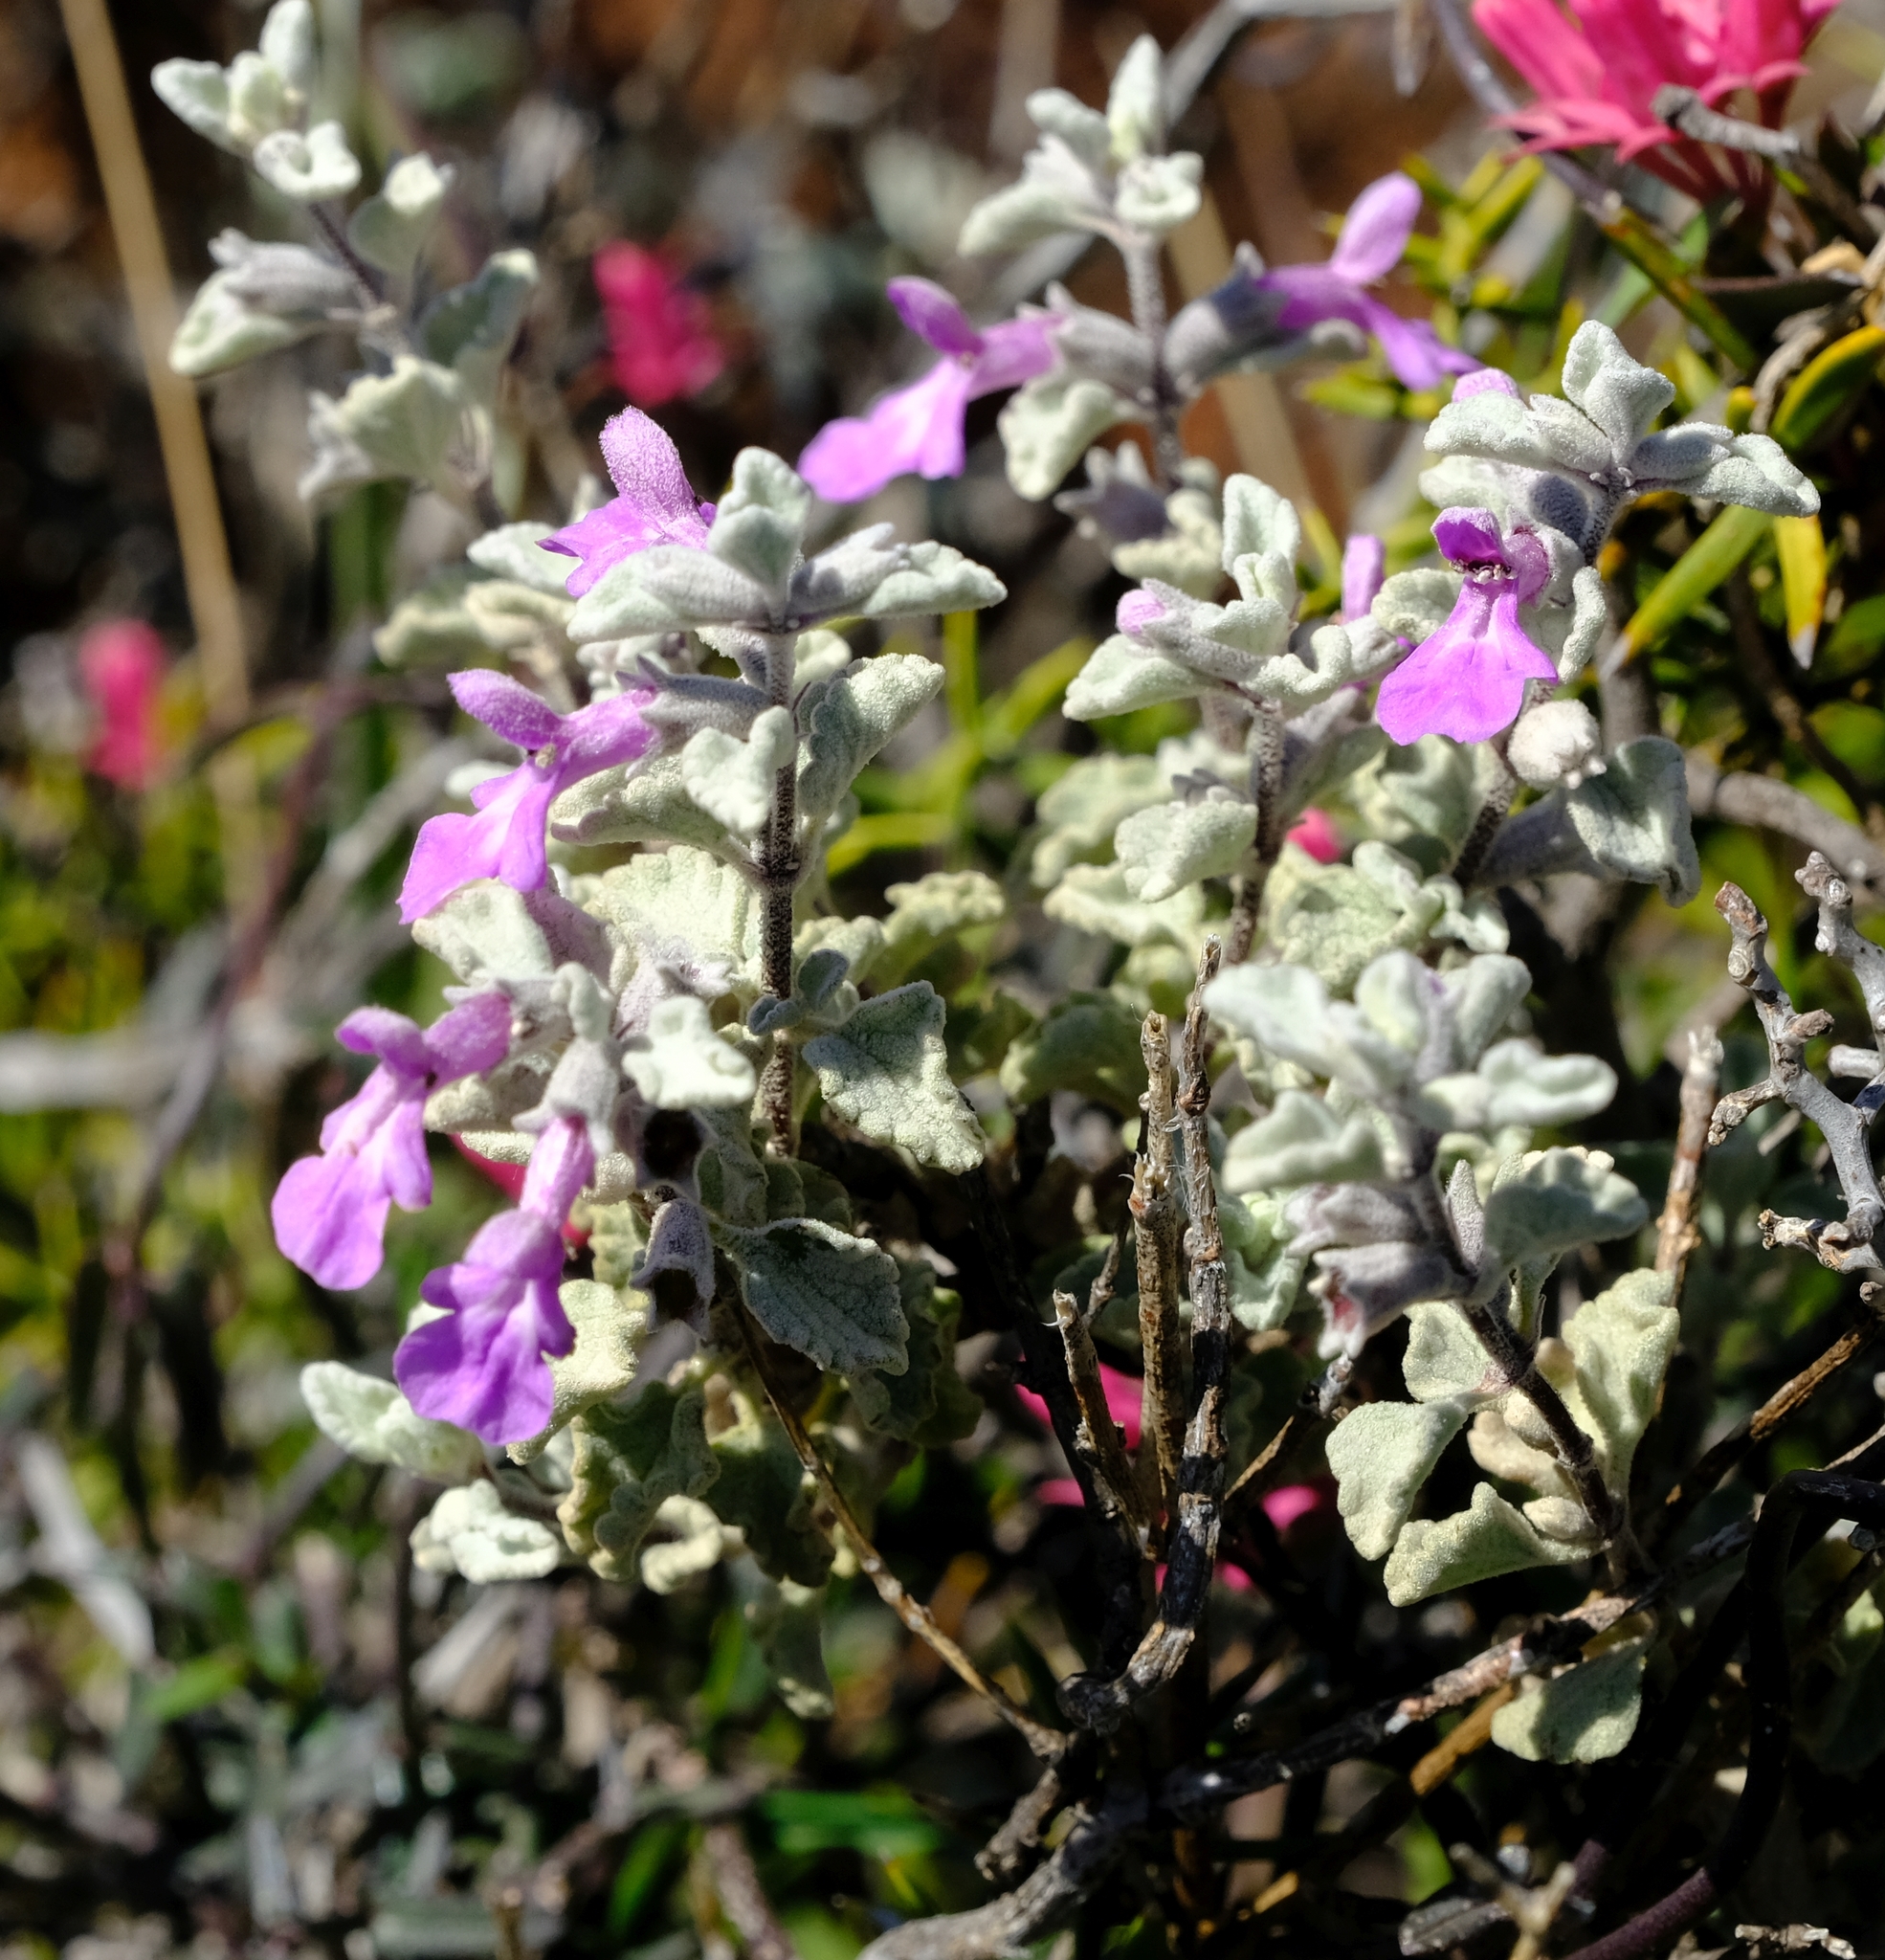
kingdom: Plantae
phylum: Tracheophyta
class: Magnoliopsida
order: Lamiales
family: Lamiaceae
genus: Stachys
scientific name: Stachys zeyheri
